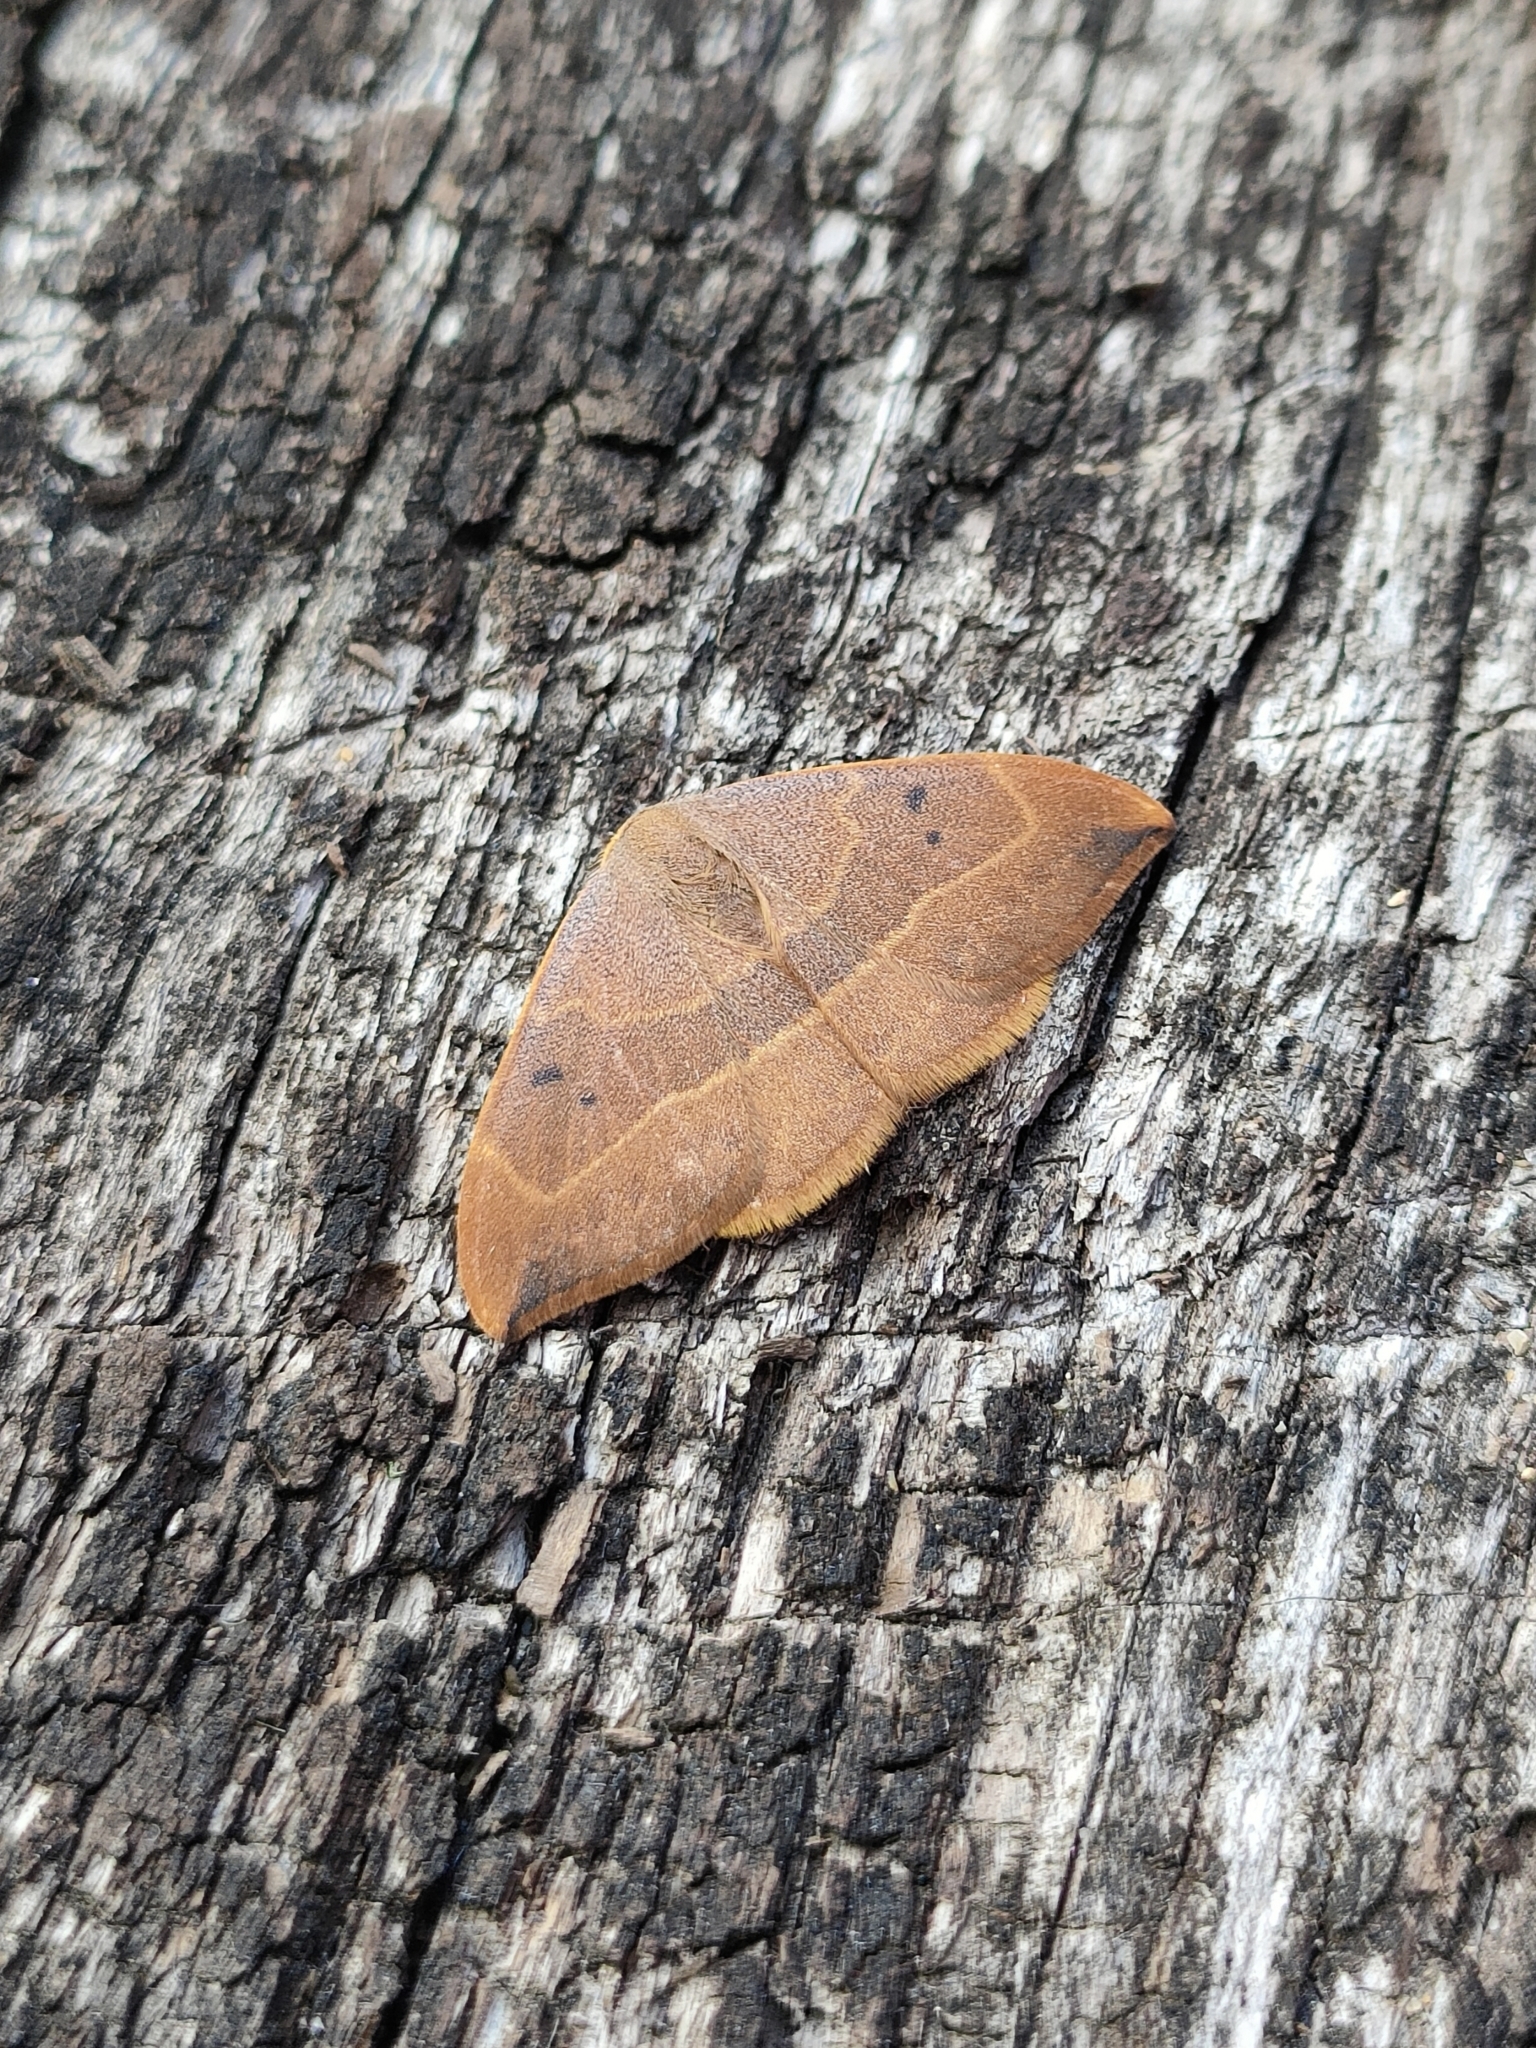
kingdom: Animalia
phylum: Arthropoda
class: Insecta
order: Lepidoptera
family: Drepanidae
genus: Watsonalla
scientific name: Watsonalla binaria
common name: Oak hook-tip
